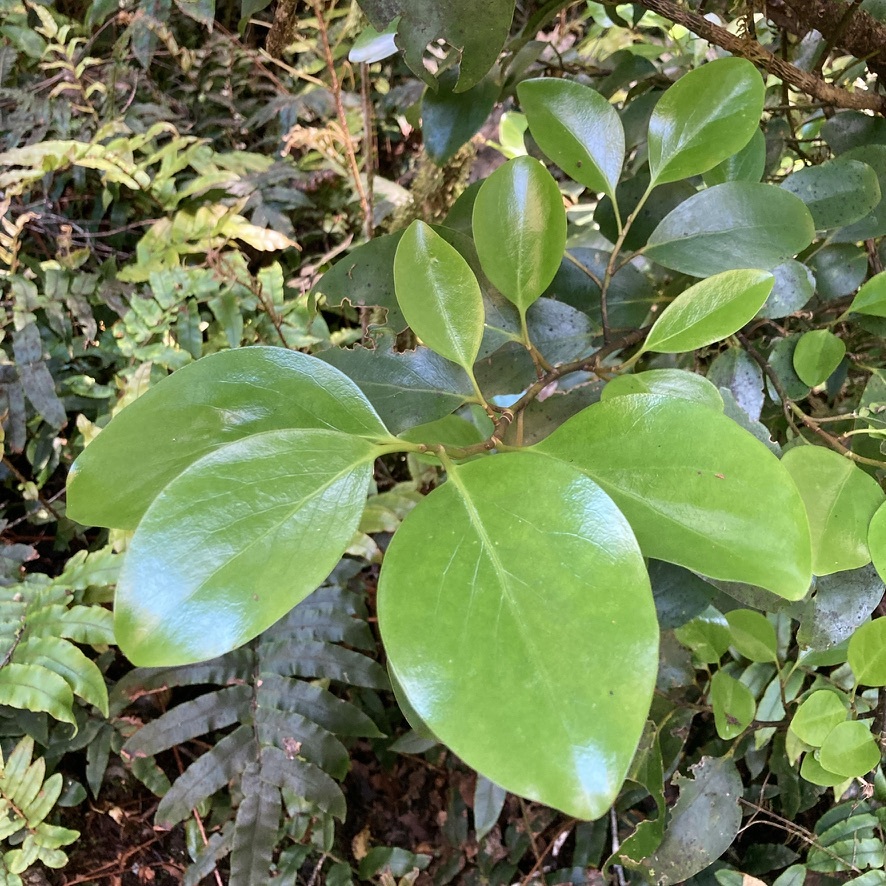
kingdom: Plantae
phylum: Tracheophyta
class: Magnoliopsida
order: Apiales
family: Griseliniaceae
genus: Griselinia
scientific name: Griselinia littoralis
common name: New zealand broadleaf
